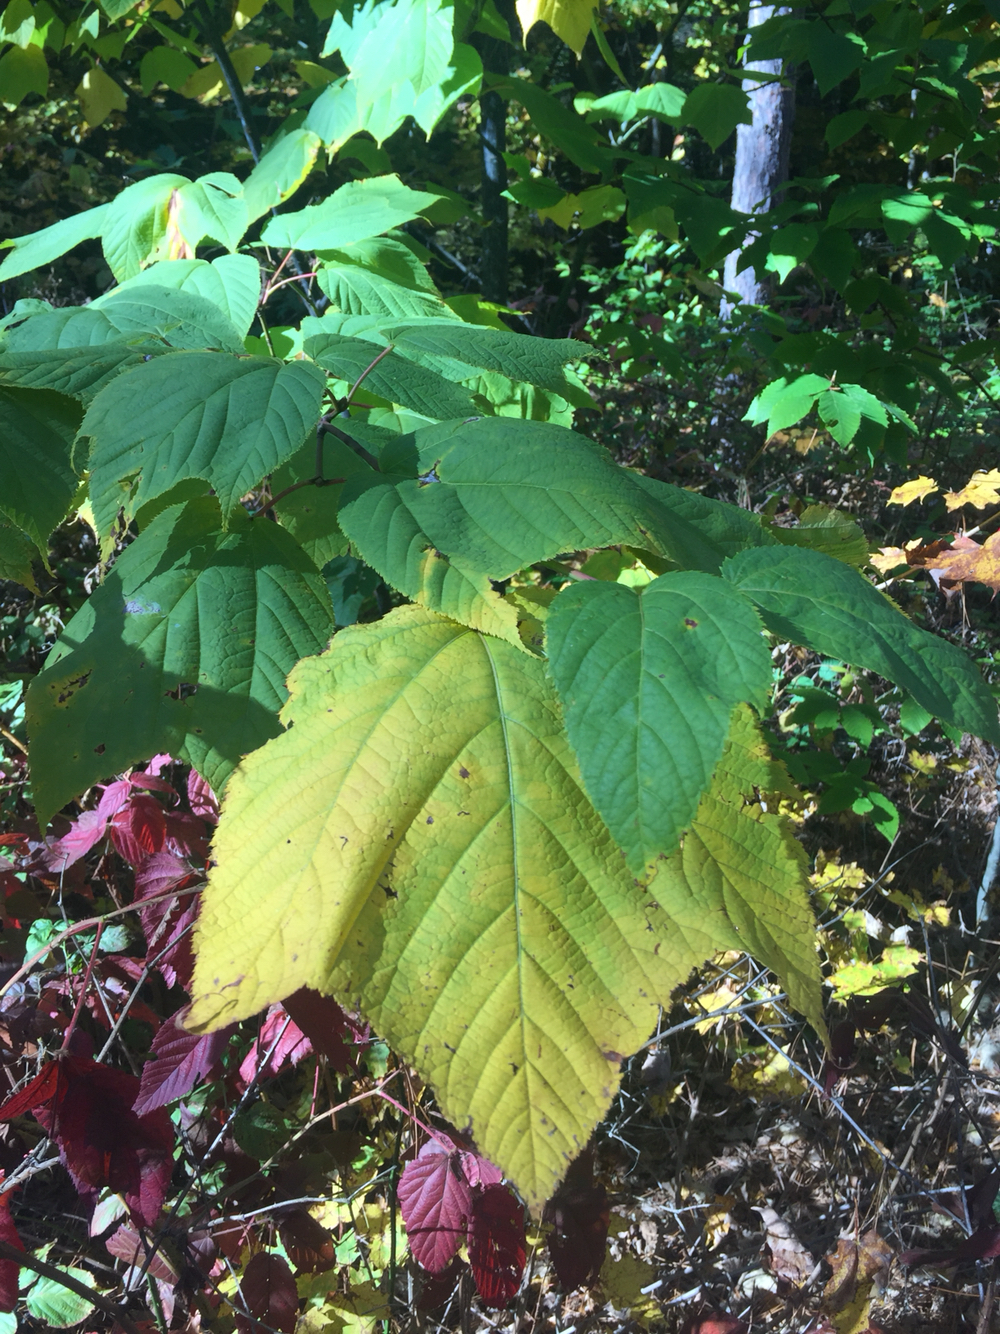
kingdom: Plantae
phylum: Tracheophyta
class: Magnoliopsida
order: Sapindales
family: Sapindaceae
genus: Acer
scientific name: Acer pensylvanicum
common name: Moosewood
